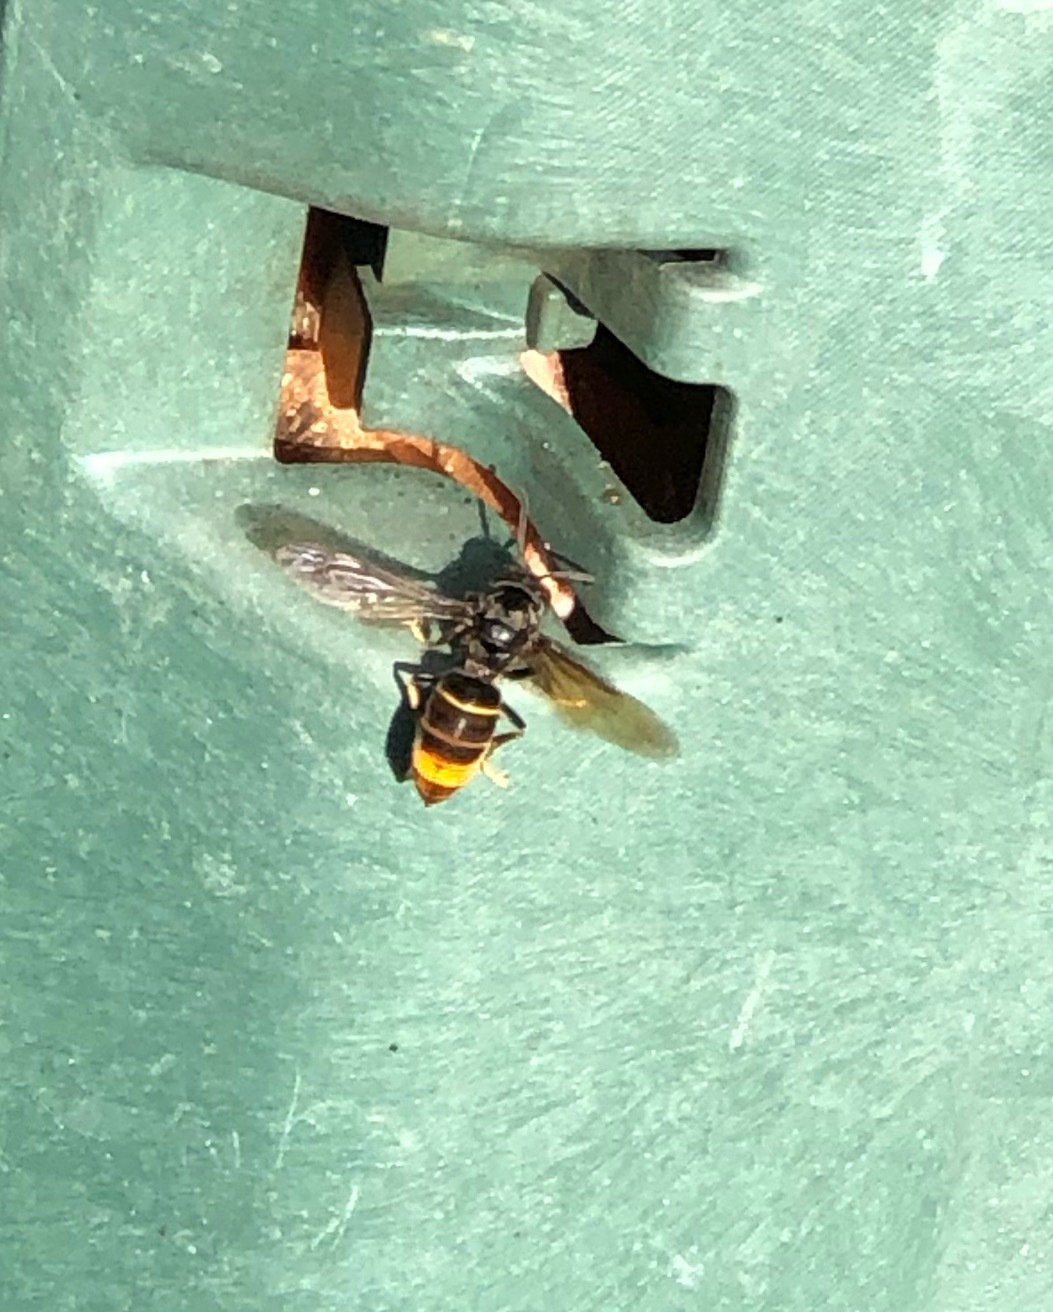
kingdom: Animalia
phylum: Arthropoda
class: Insecta
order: Hymenoptera
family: Vespidae
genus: Vespa
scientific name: Vespa velutina
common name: Asian hornet
